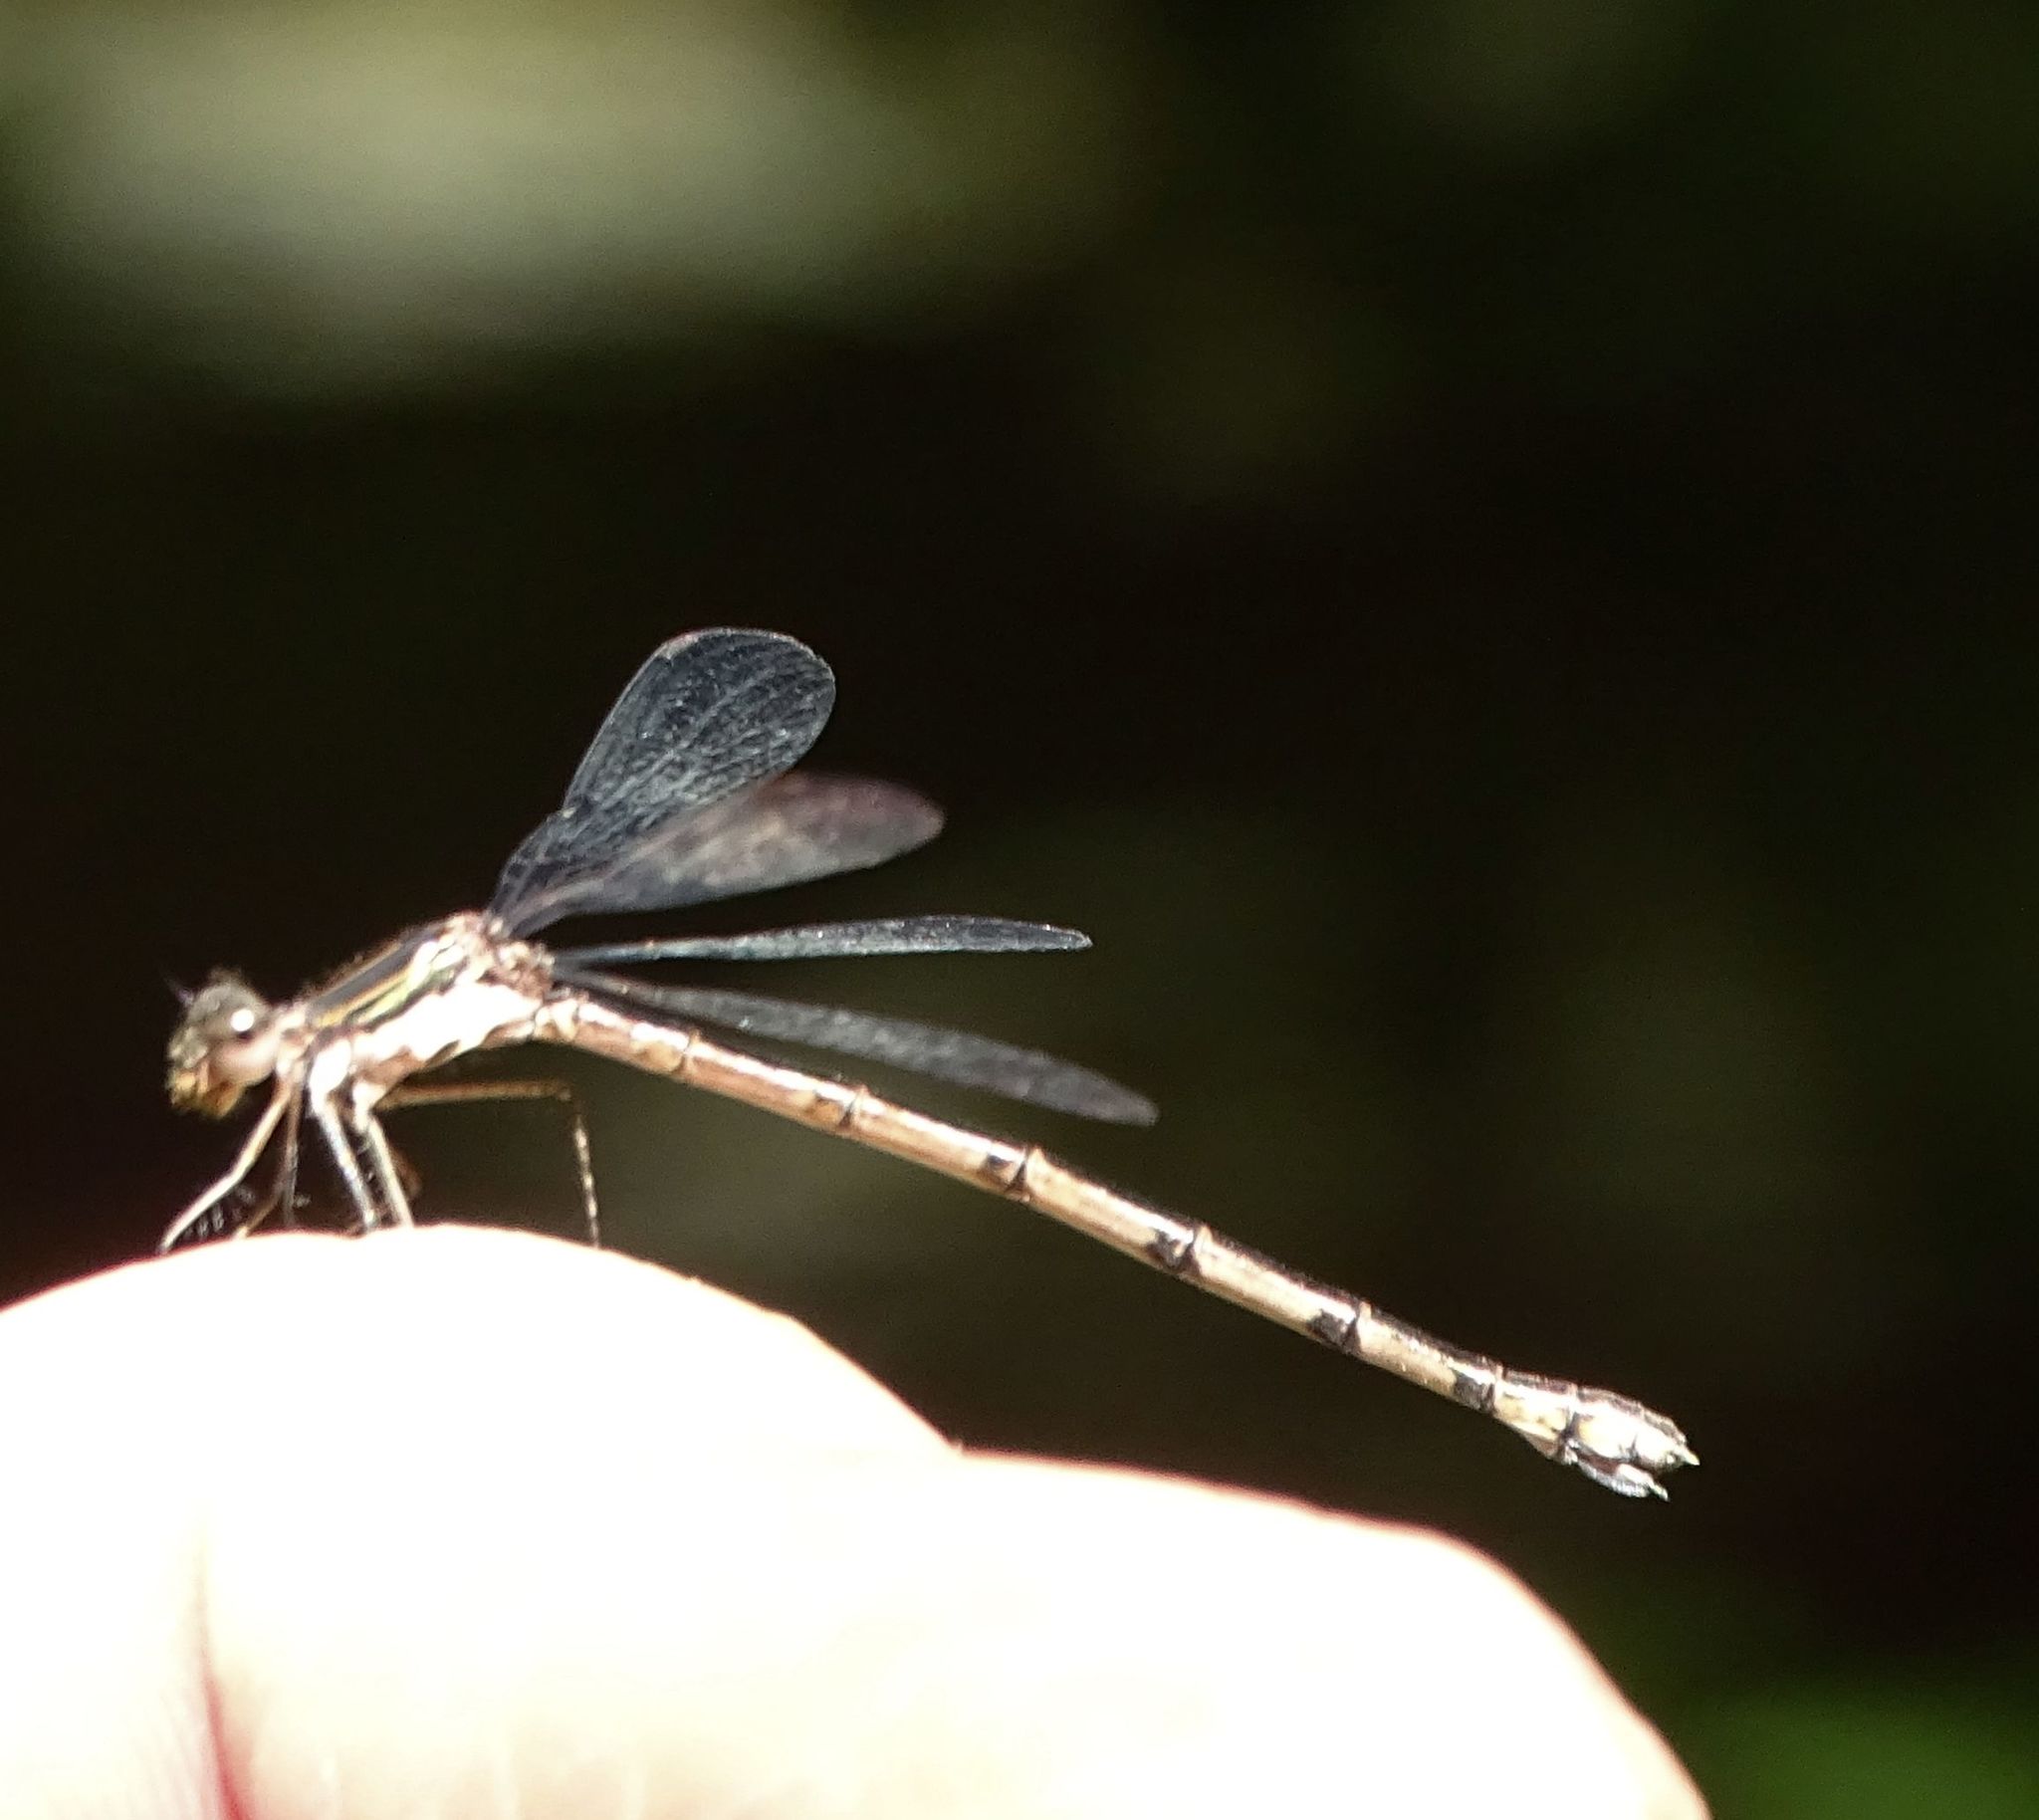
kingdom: Animalia
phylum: Arthropoda
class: Insecta
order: Odonata
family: Lestidae
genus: Lestes
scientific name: Lestes congener
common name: Spotted spreadwing
